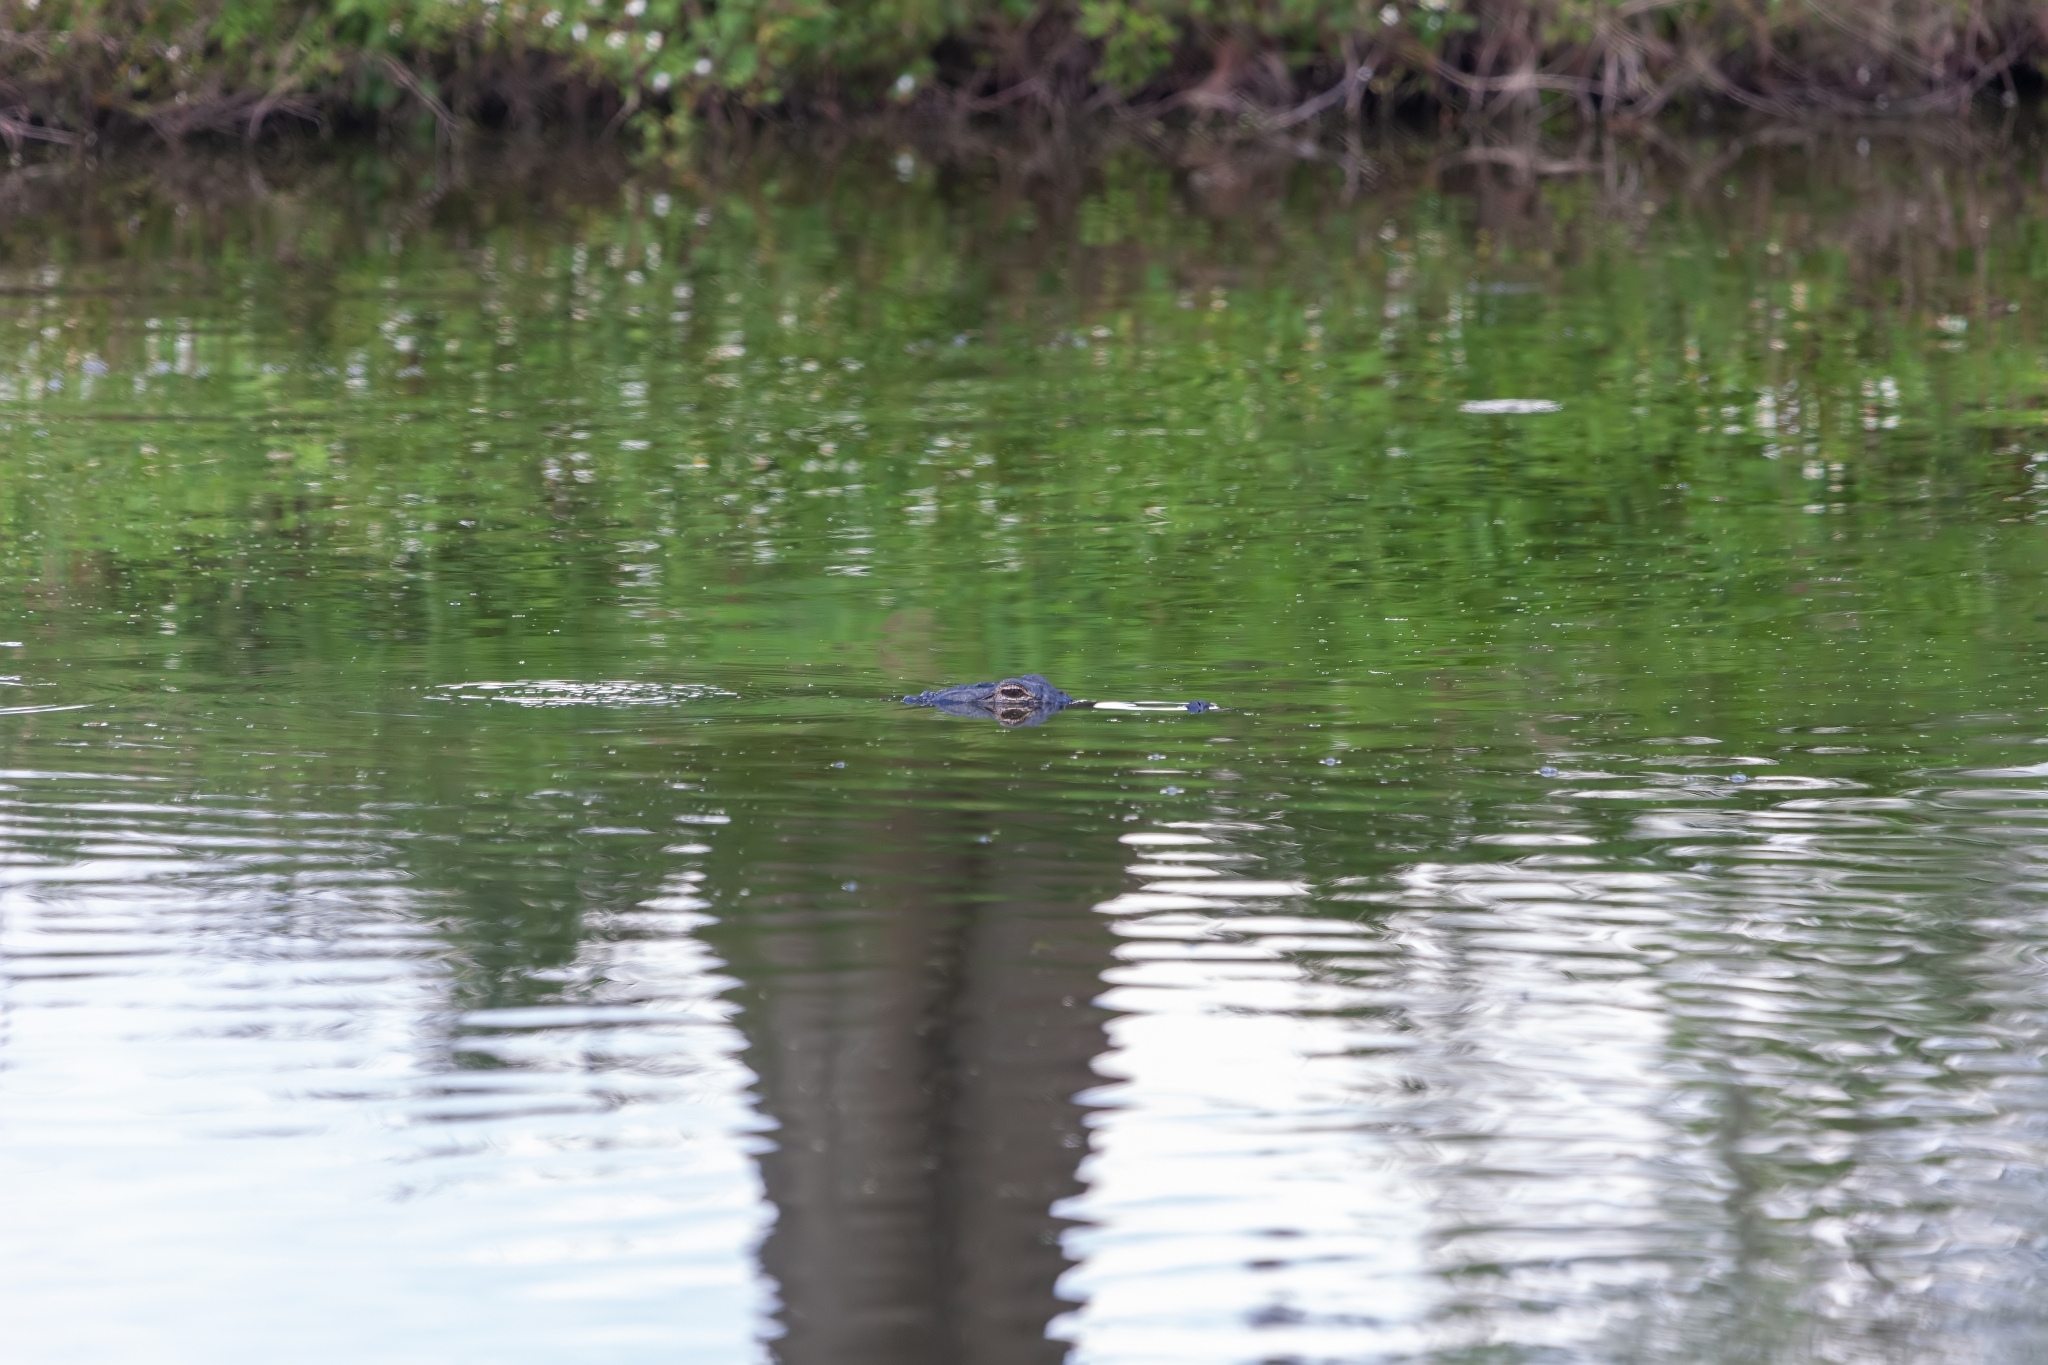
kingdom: Animalia
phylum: Chordata
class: Crocodylia
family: Alligatoridae
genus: Alligator
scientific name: Alligator mississippiensis
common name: American alligator
